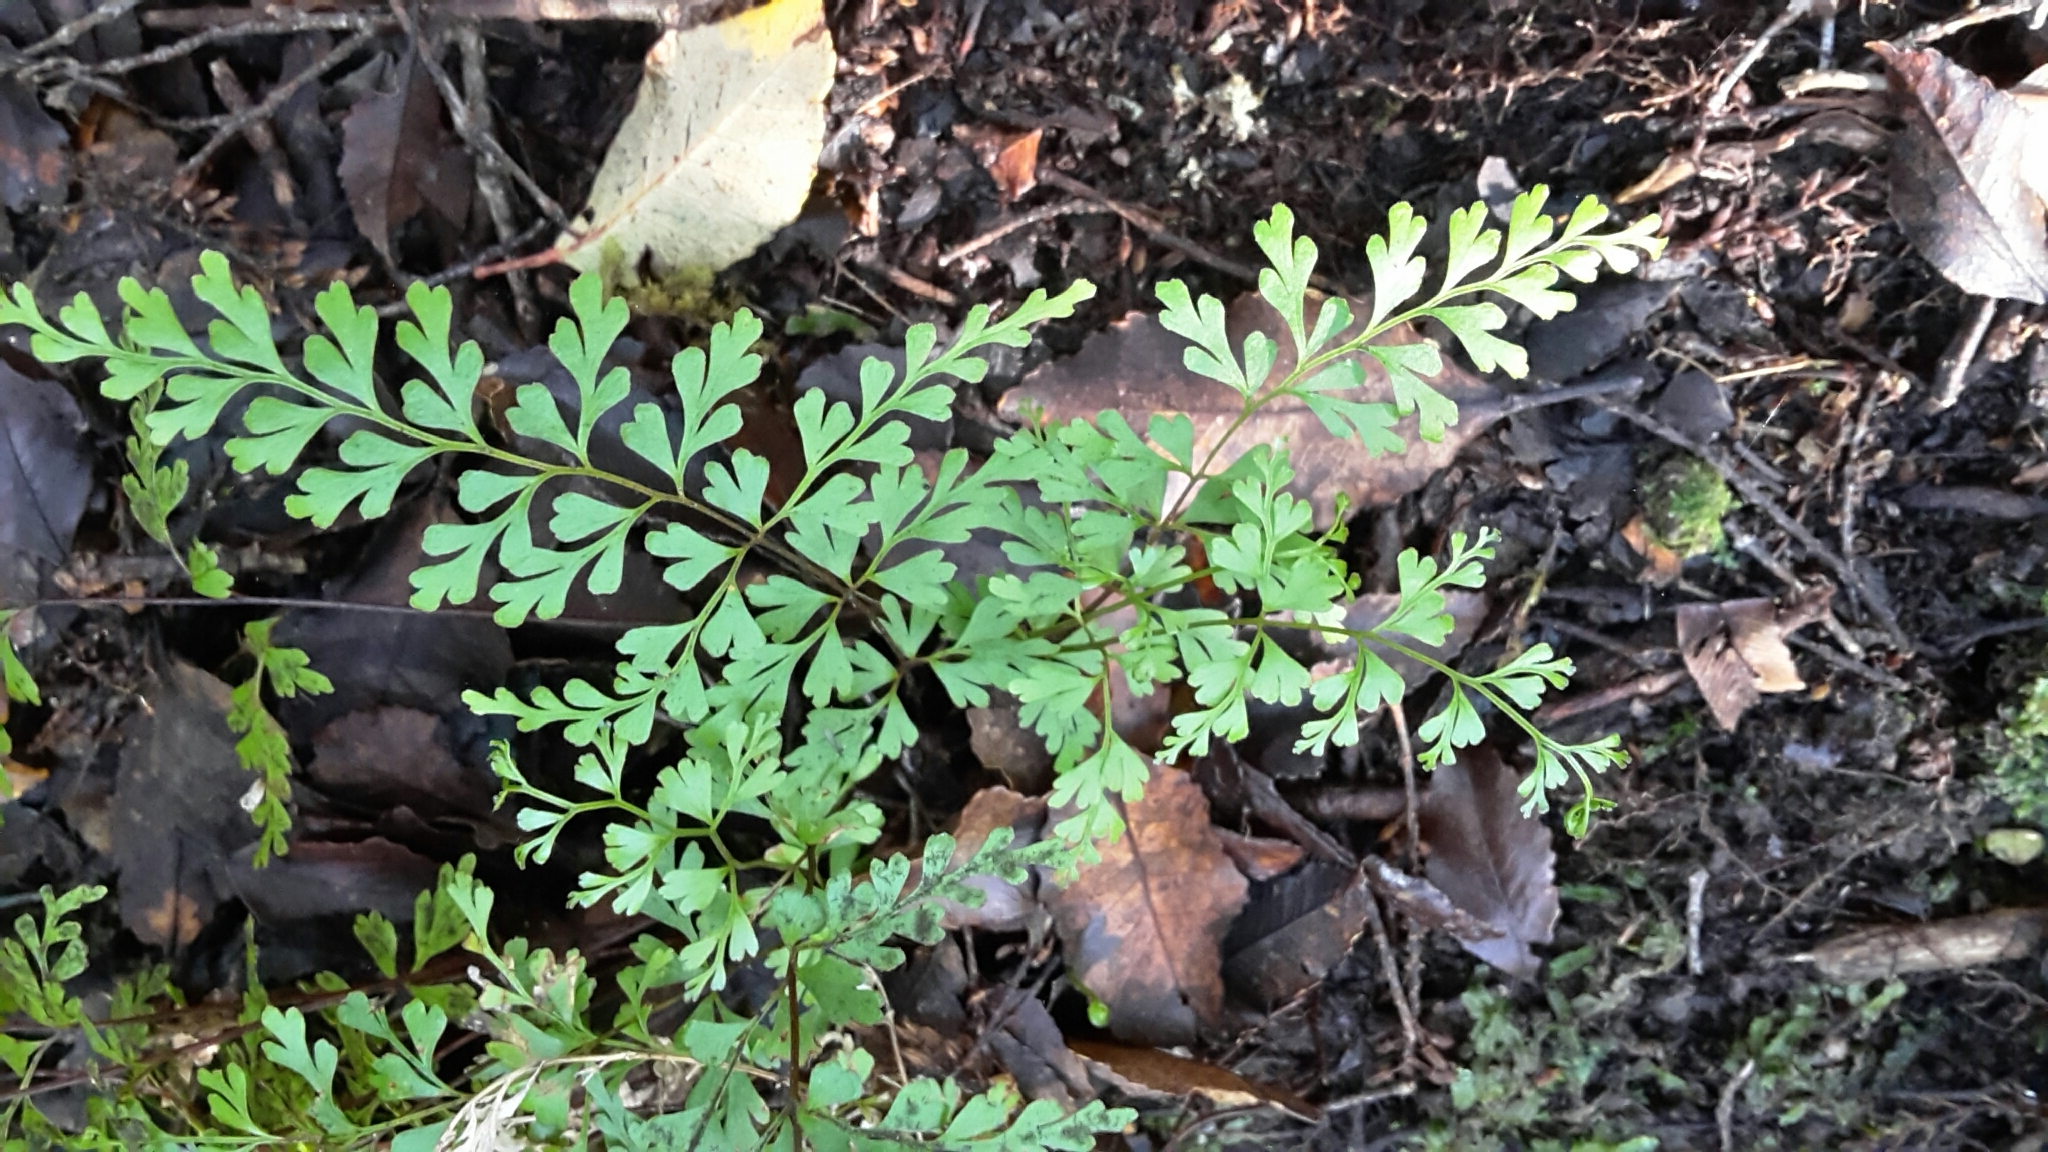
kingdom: Plantae
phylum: Tracheophyta
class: Polypodiopsida
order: Polypodiales
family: Lindsaeaceae
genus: Lindsaea
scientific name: Lindsaea trichomanoides
